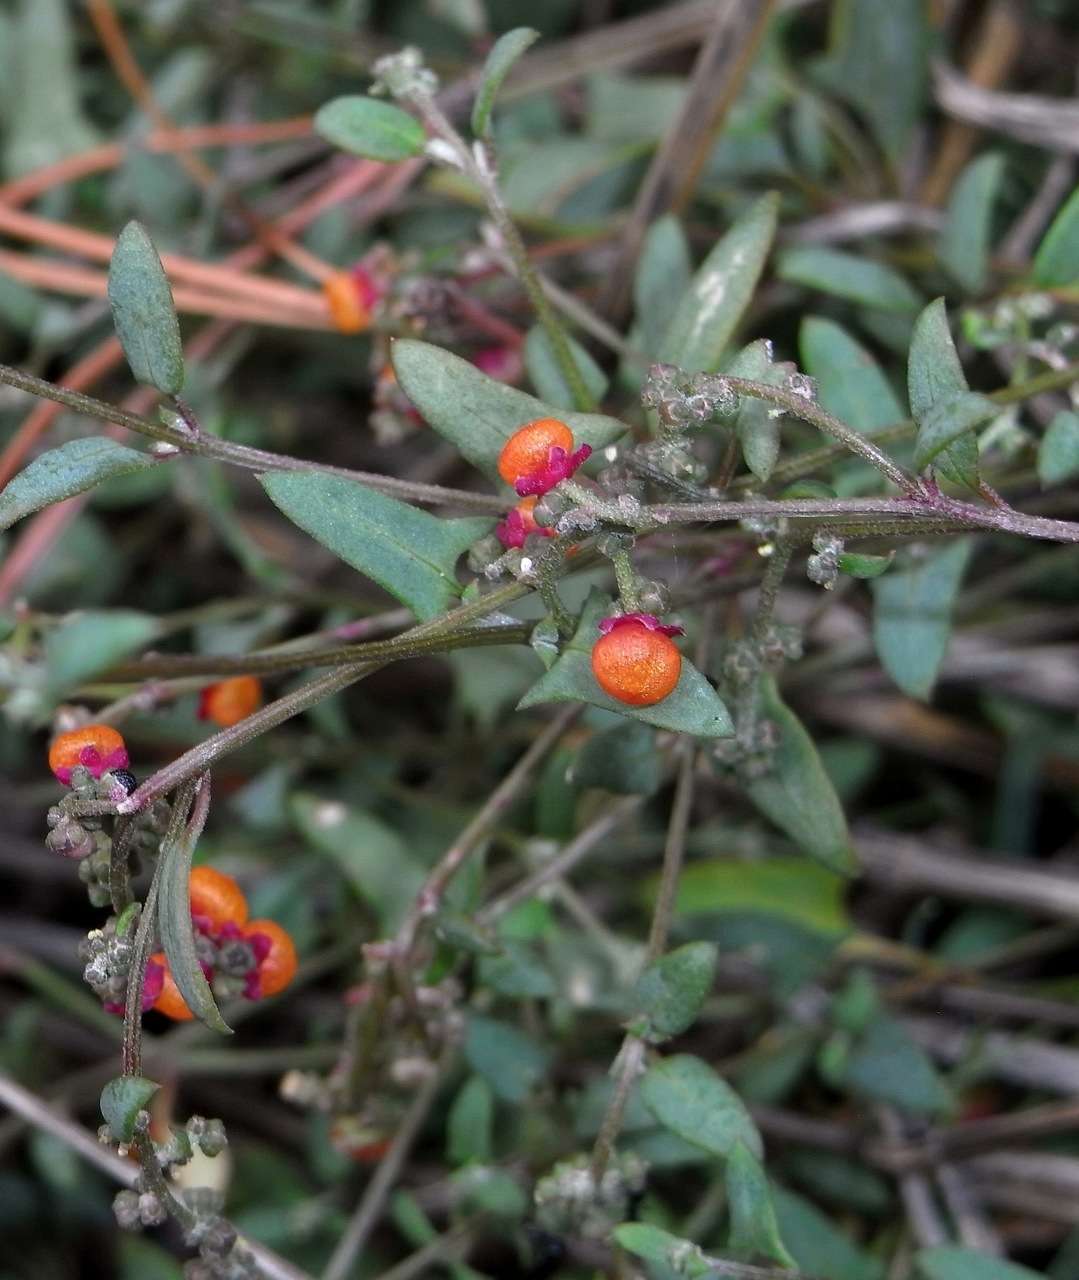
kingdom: Plantae
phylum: Tracheophyta
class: Magnoliopsida
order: Caryophyllales
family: Amaranthaceae
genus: Chenopodium
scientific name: Chenopodium nutans
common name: Climbing-saltbush
